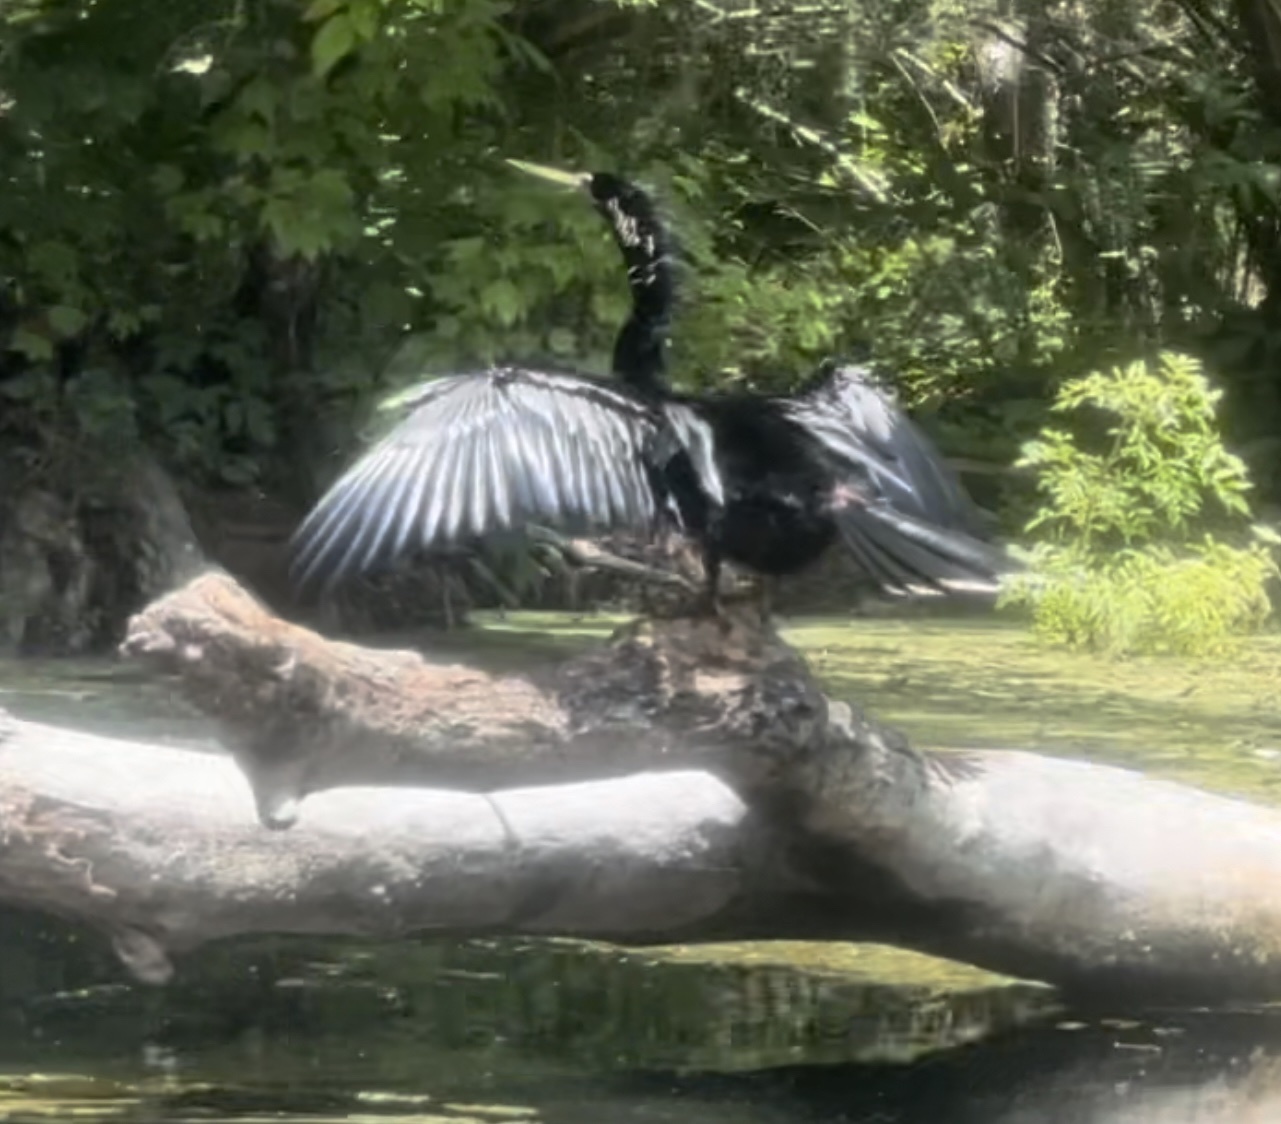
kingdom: Animalia
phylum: Chordata
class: Aves
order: Suliformes
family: Anhingidae
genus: Anhinga
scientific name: Anhinga anhinga
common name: Anhinga
